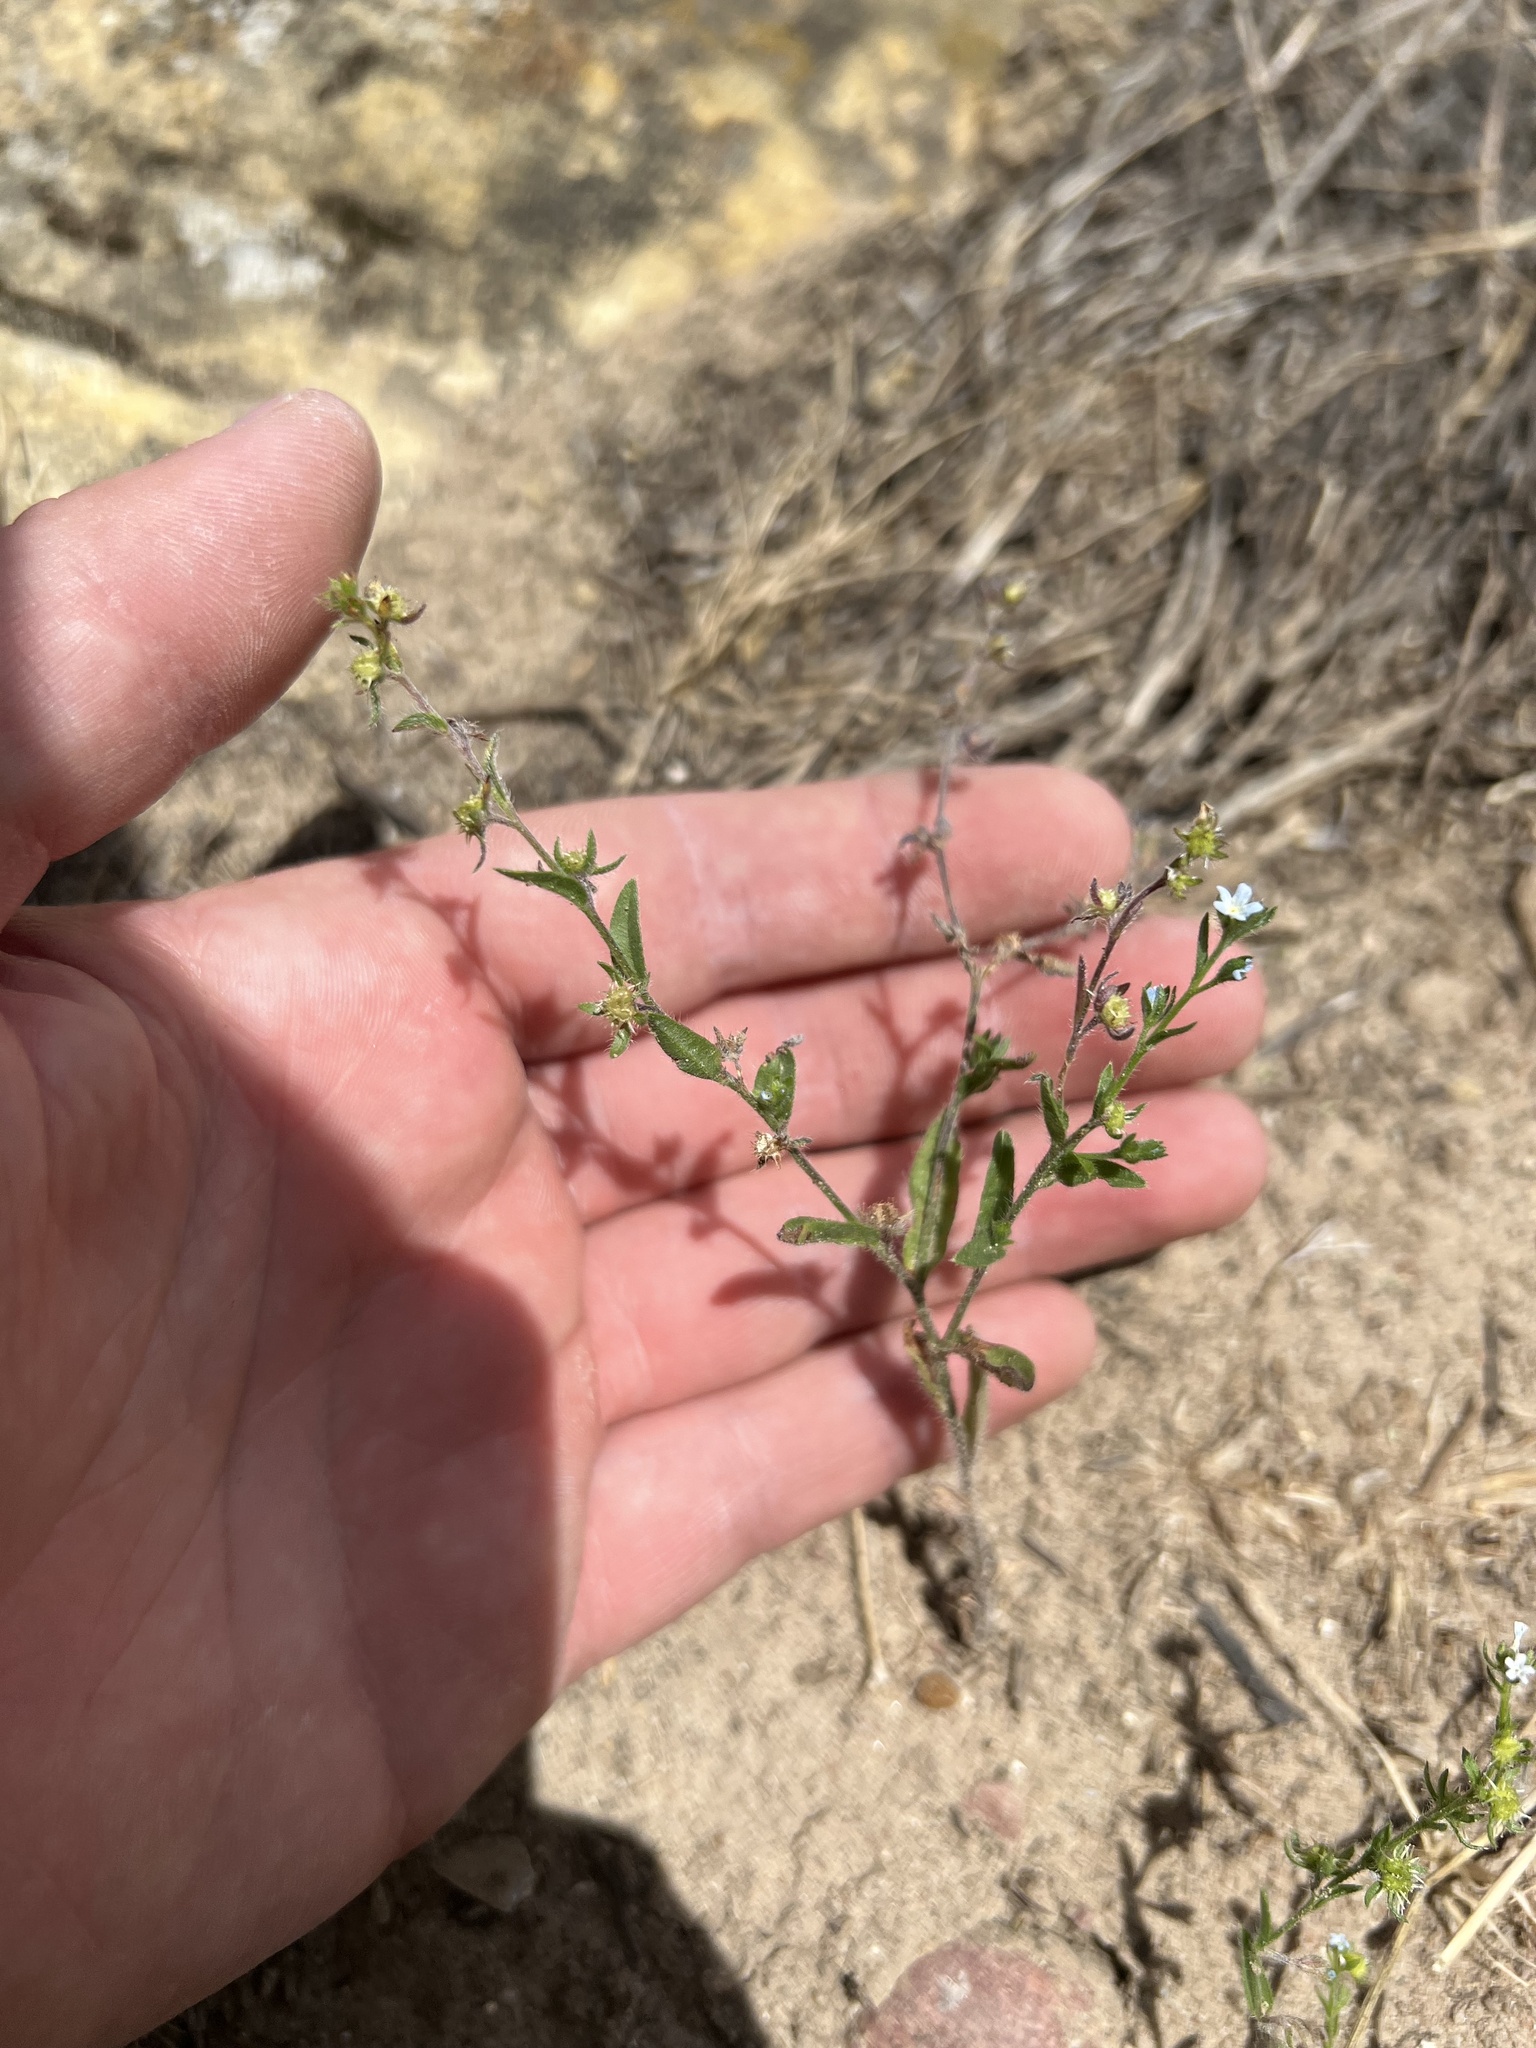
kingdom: Plantae
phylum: Tracheophyta
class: Magnoliopsida
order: Boraginales
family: Boraginaceae
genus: Lappula
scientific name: Lappula occidentalis
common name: Western stickseed
